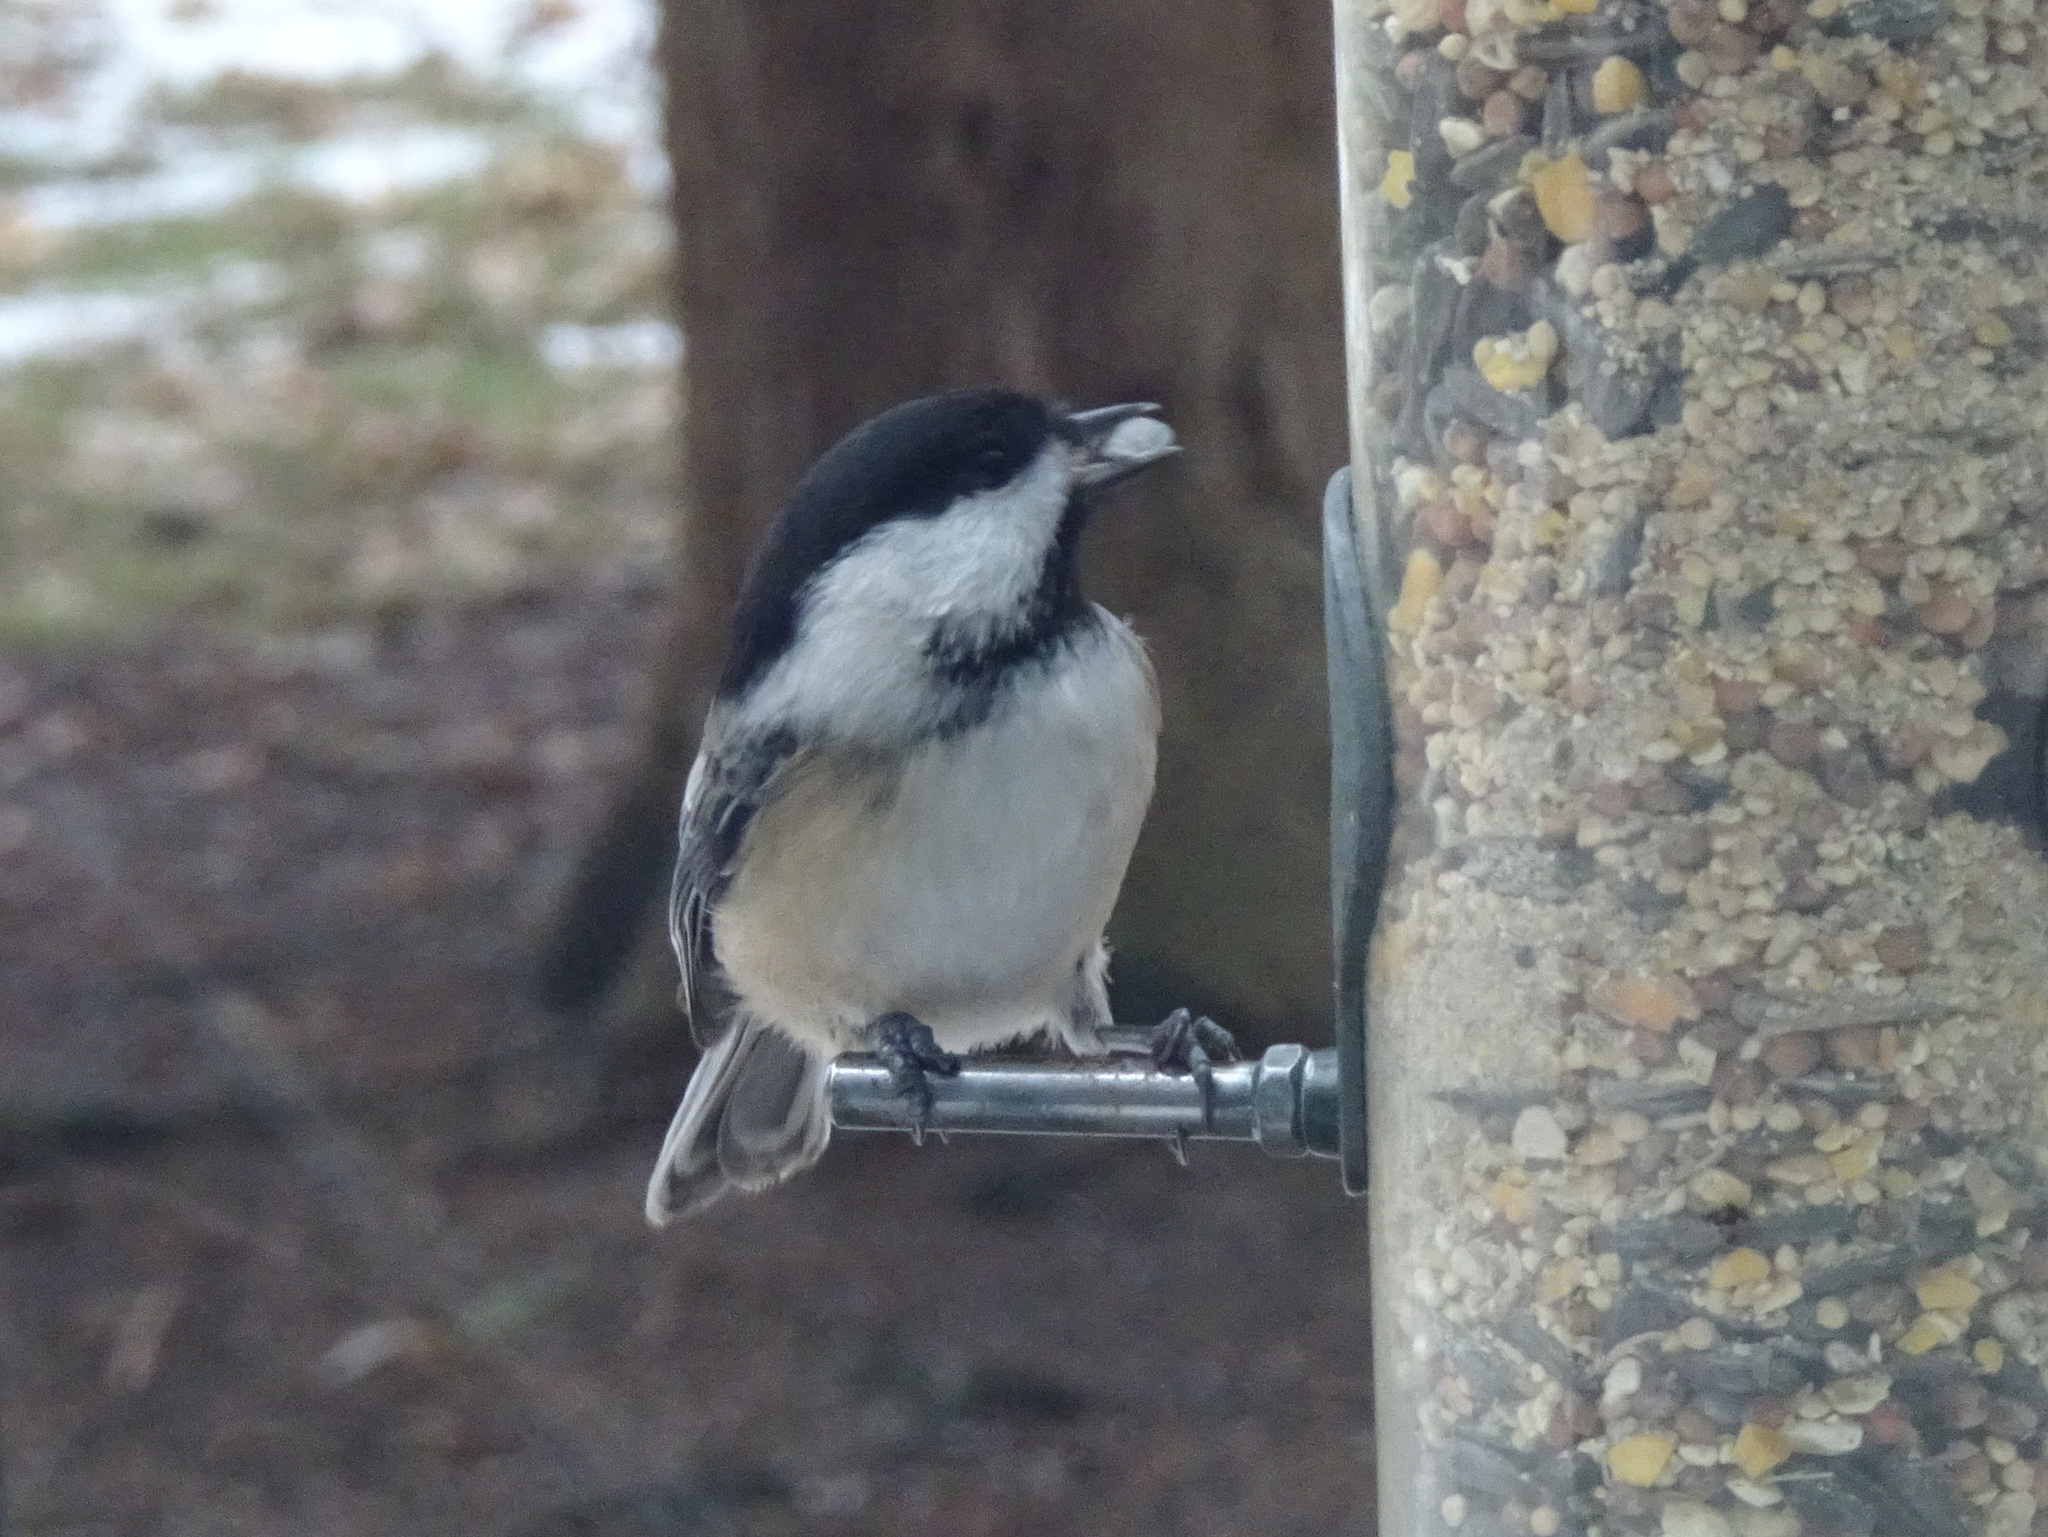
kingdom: Animalia
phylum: Chordata
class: Aves
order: Passeriformes
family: Paridae
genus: Poecile
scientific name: Poecile atricapillus
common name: Black-capped chickadee
